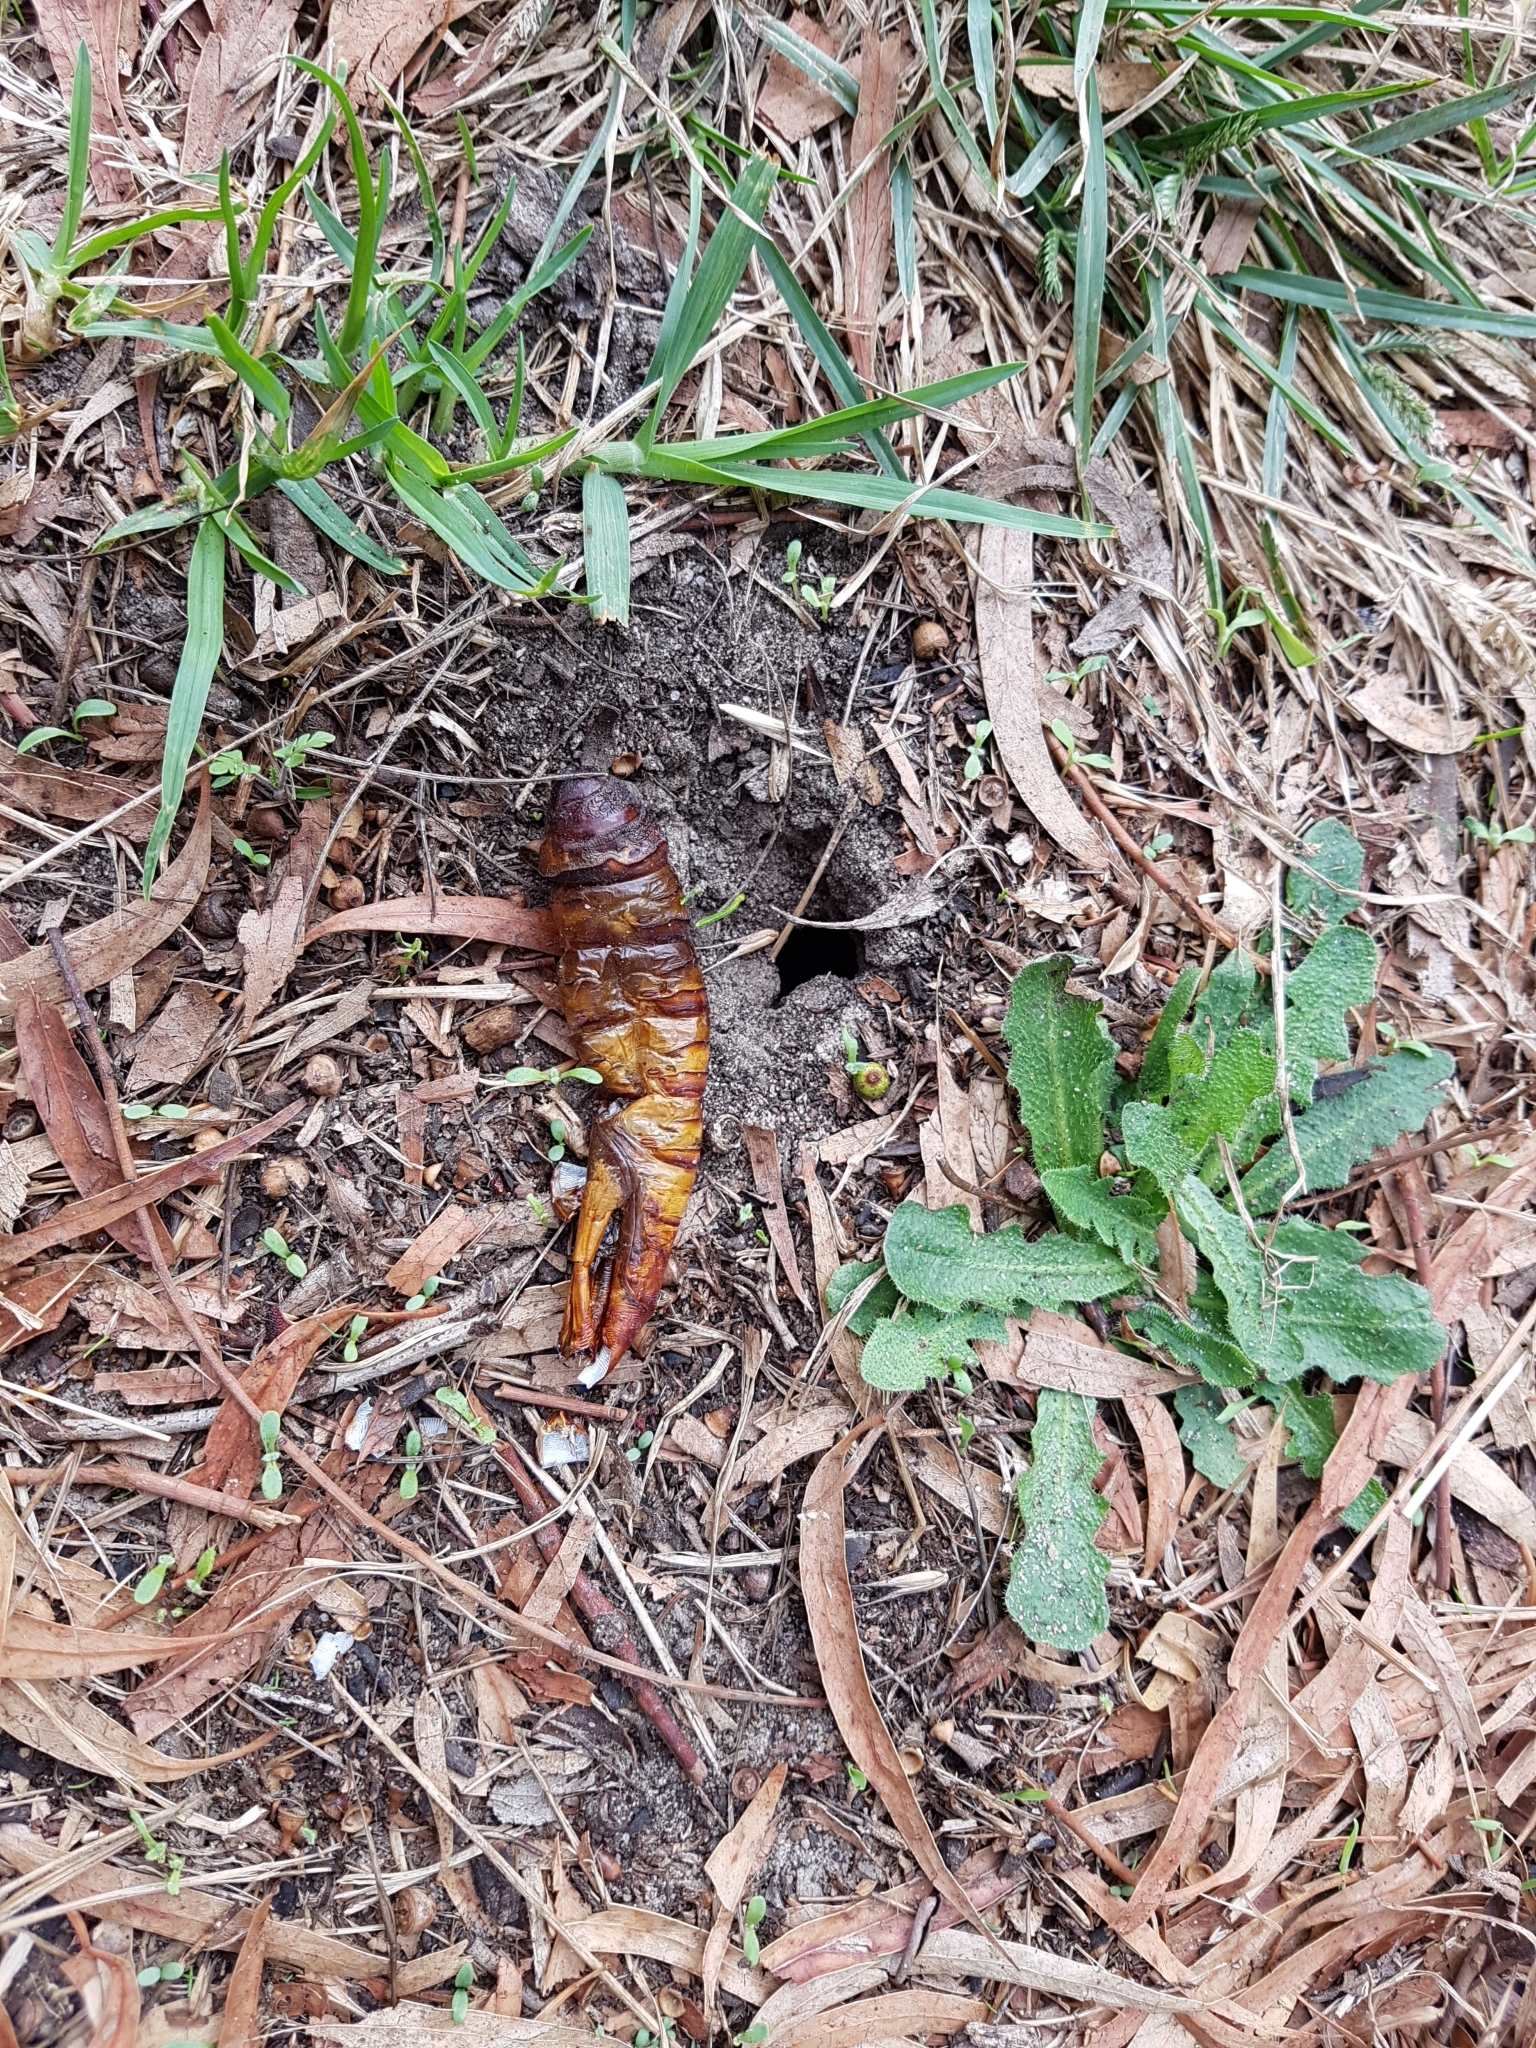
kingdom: Animalia
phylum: Arthropoda
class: Insecta
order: Lepidoptera
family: Hepialidae
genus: Abantiades
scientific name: Abantiades atripalpis
